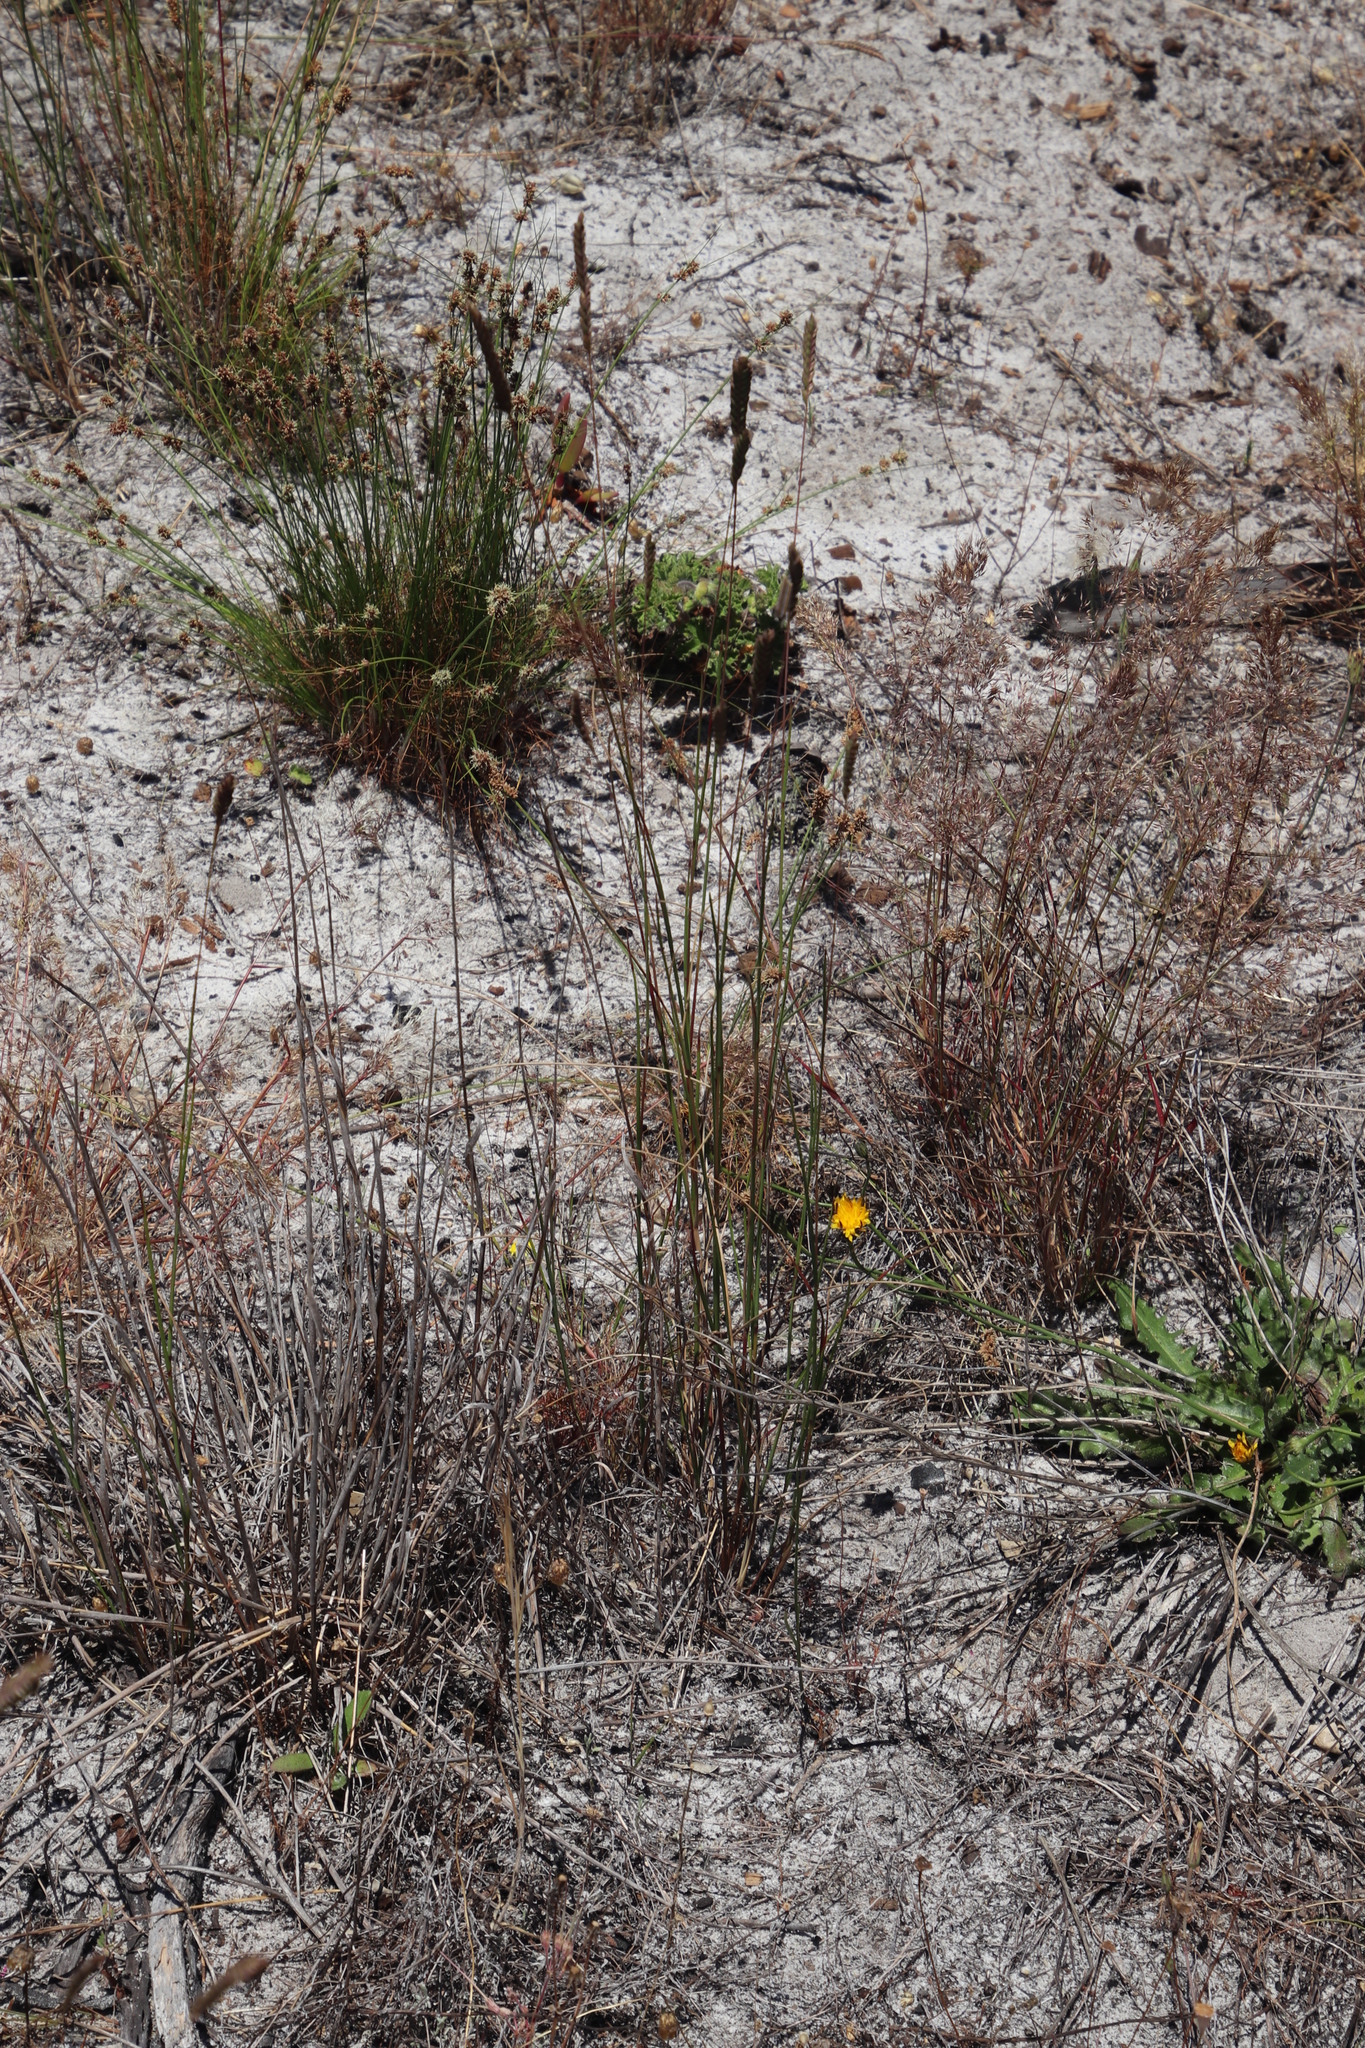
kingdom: Plantae
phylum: Tracheophyta
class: Liliopsida
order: Poales
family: Poaceae
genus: Tribolium
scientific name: Tribolium uniolae
